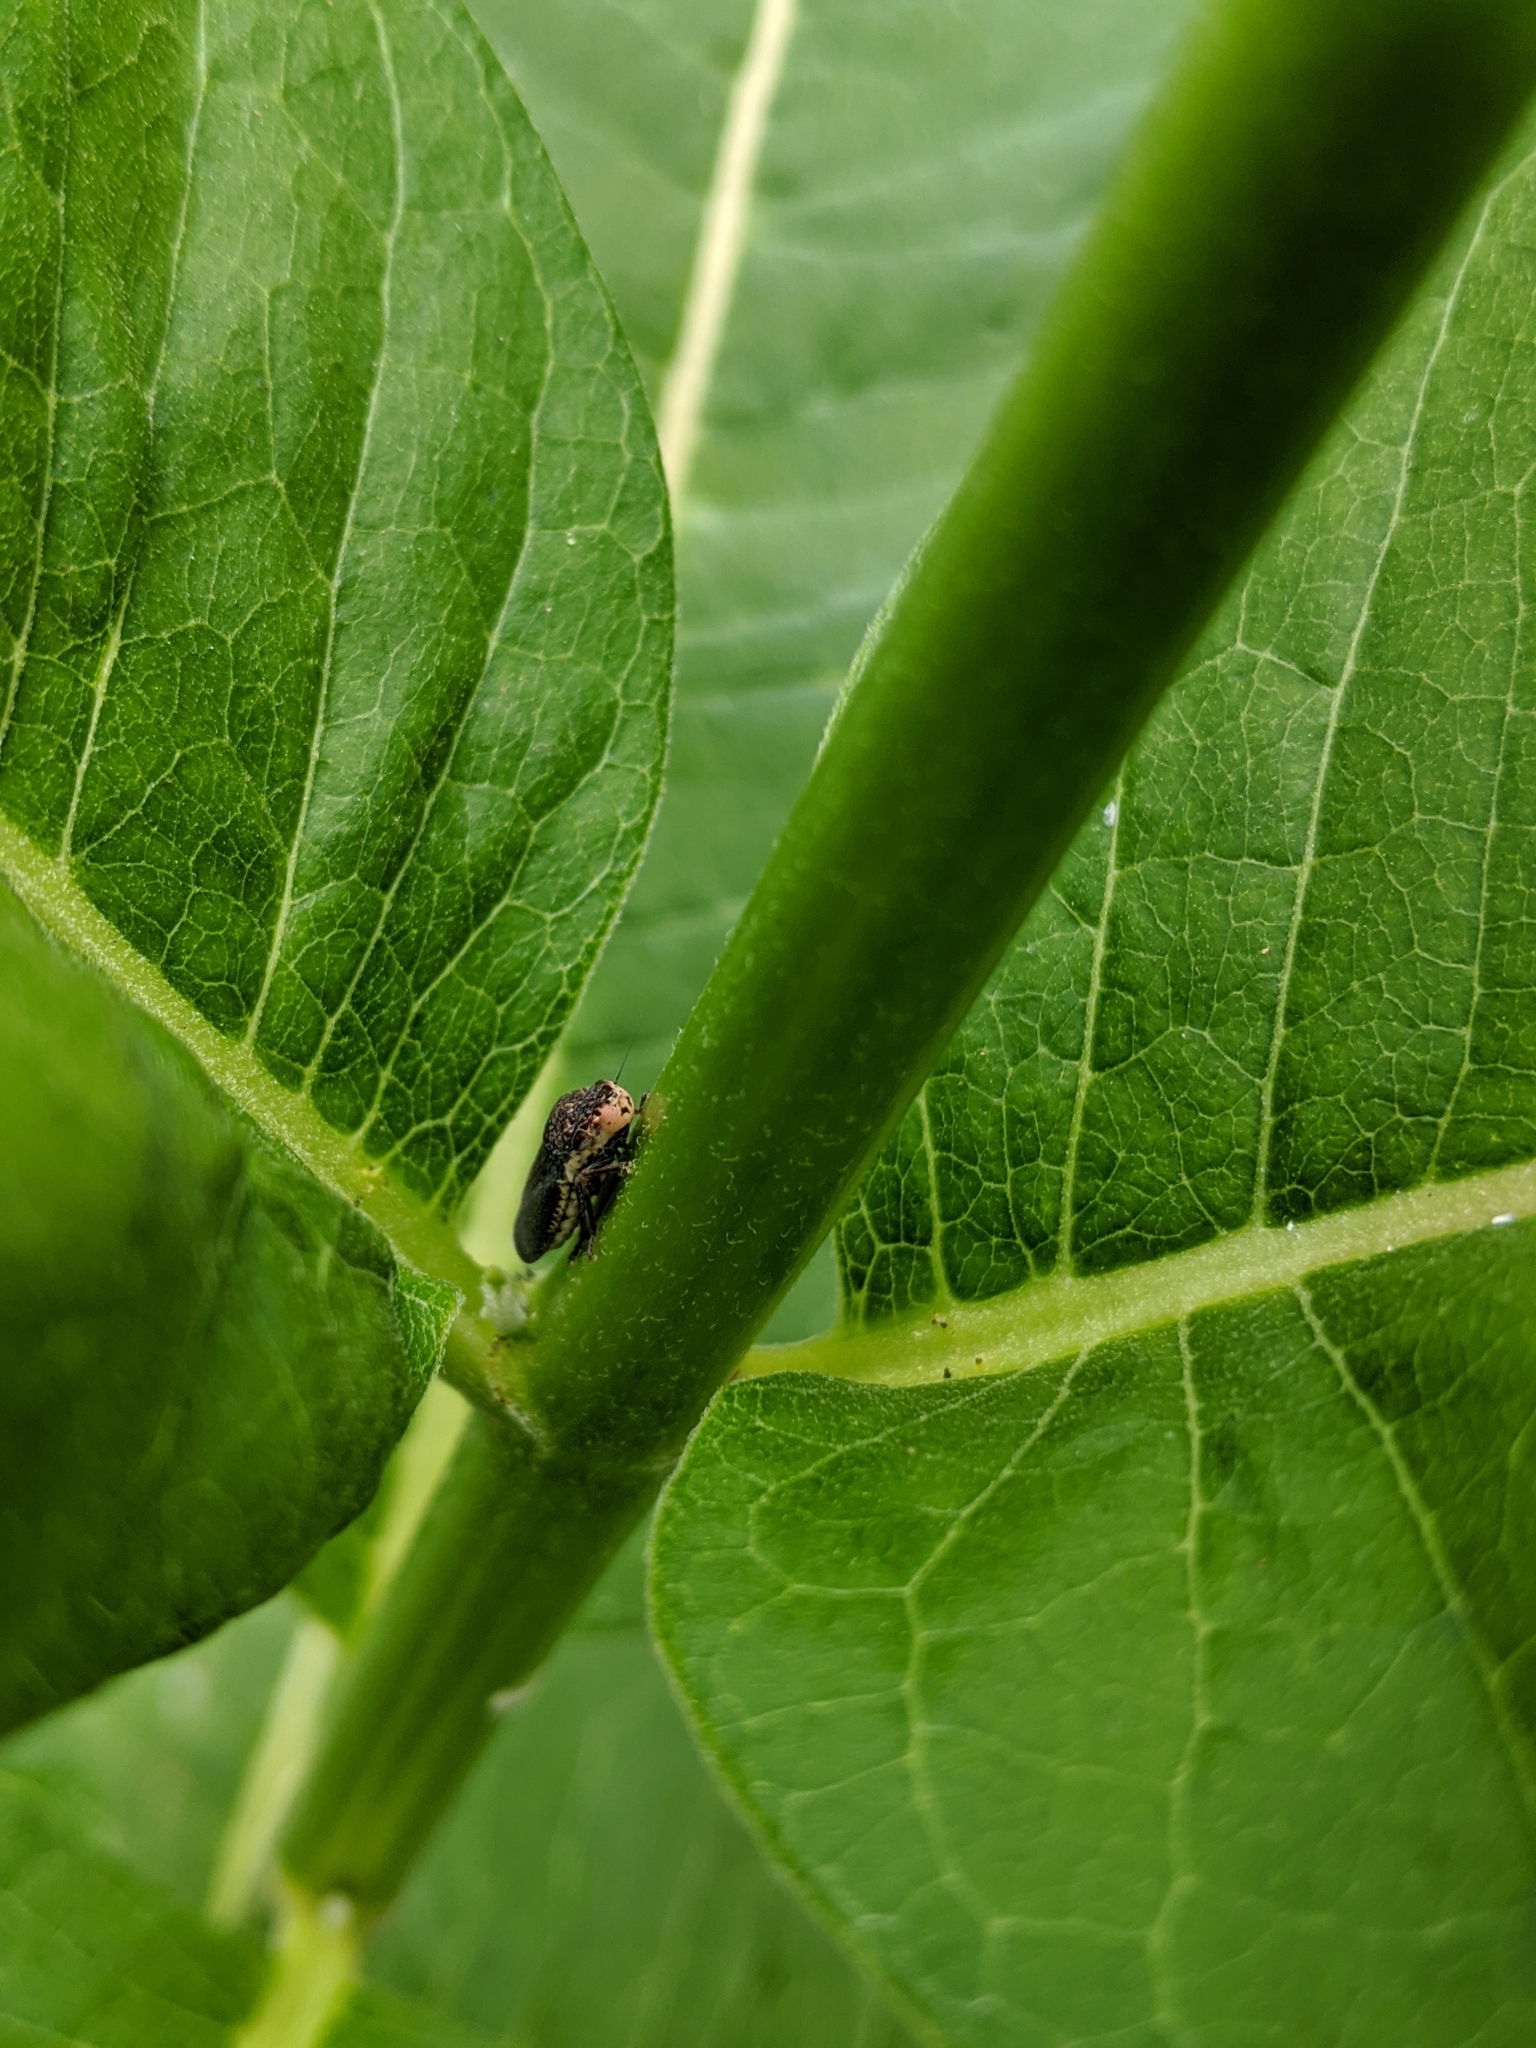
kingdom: Animalia
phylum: Arthropoda
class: Insecta
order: Hemiptera
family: Cicadellidae
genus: Paraulacizes
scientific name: Paraulacizes irrorata
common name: Speckled sharpshooter
